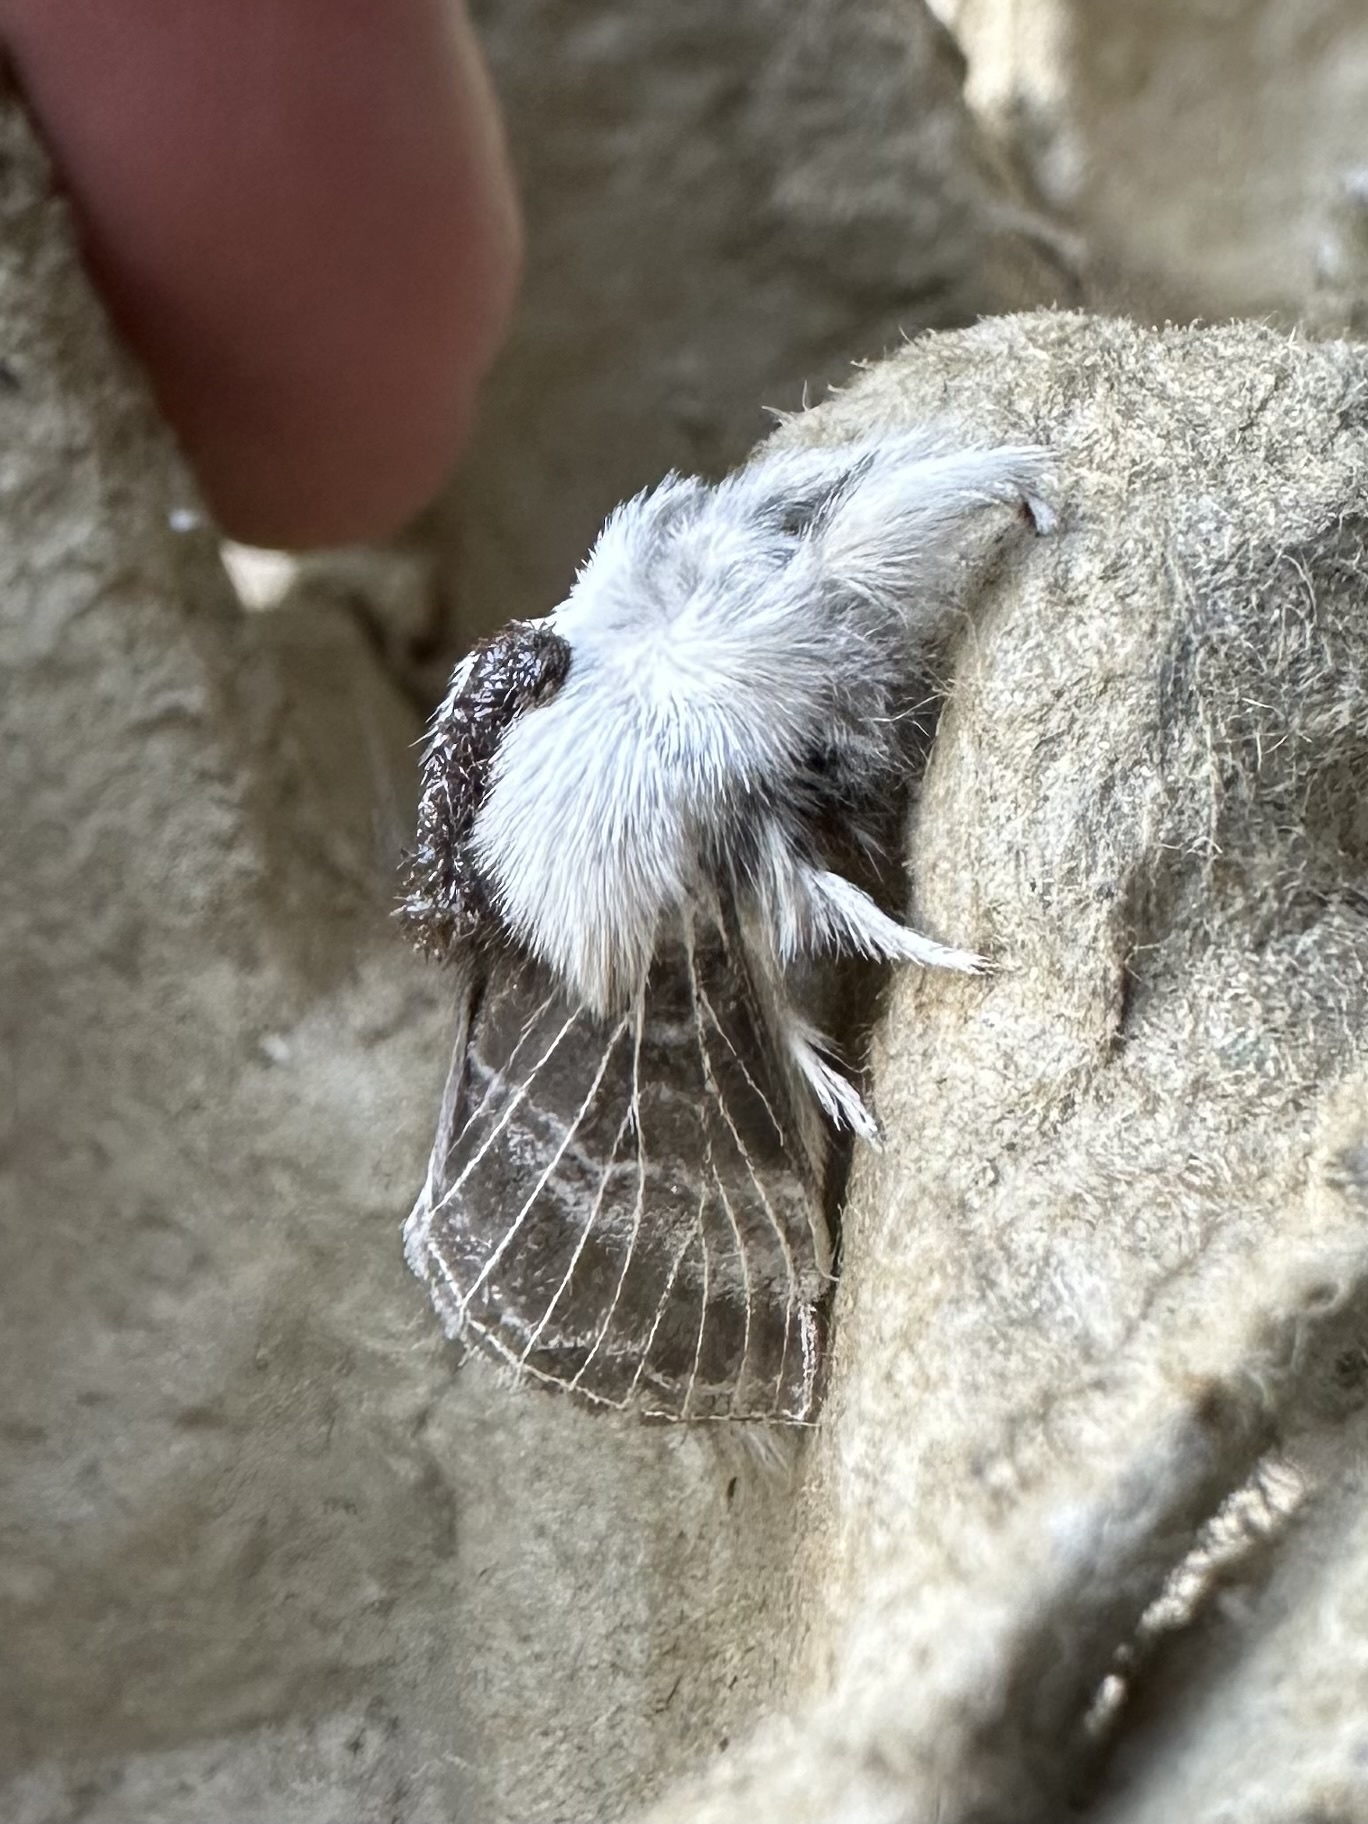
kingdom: Animalia
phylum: Arthropoda
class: Insecta
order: Lepidoptera
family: Lasiocampidae
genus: Tolype
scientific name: Tolype velleda
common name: Large tolype moth
